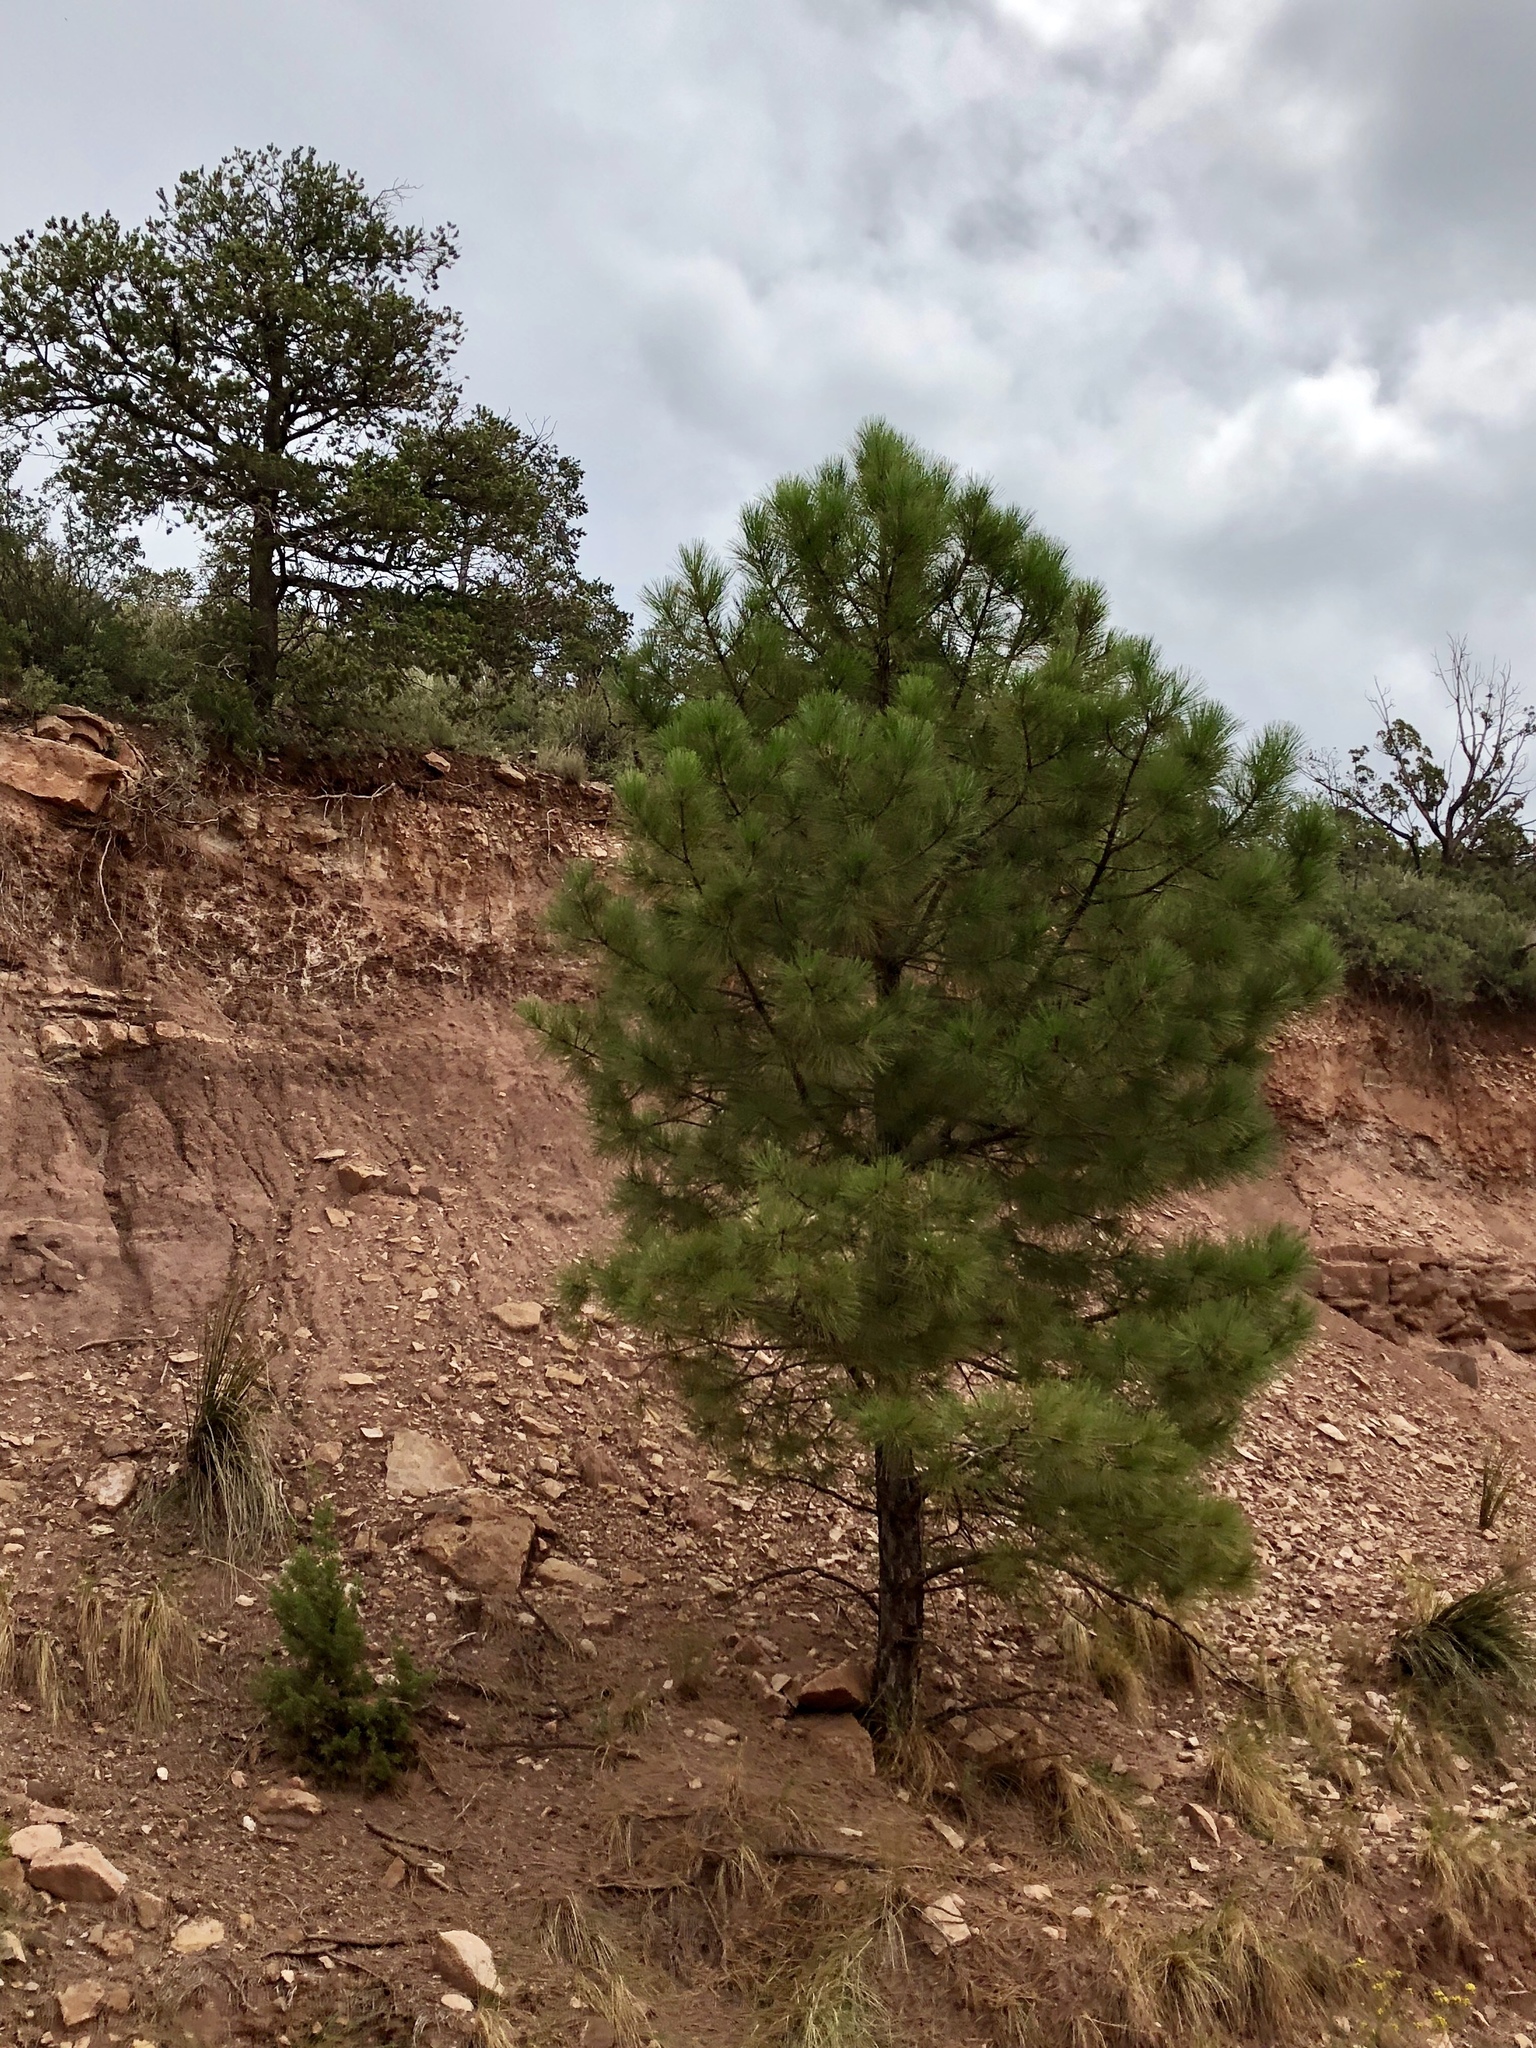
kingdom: Plantae
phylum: Tracheophyta
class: Pinopsida
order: Pinales
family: Pinaceae
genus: Pinus
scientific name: Pinus ponderosa
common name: Western yellow-pine
